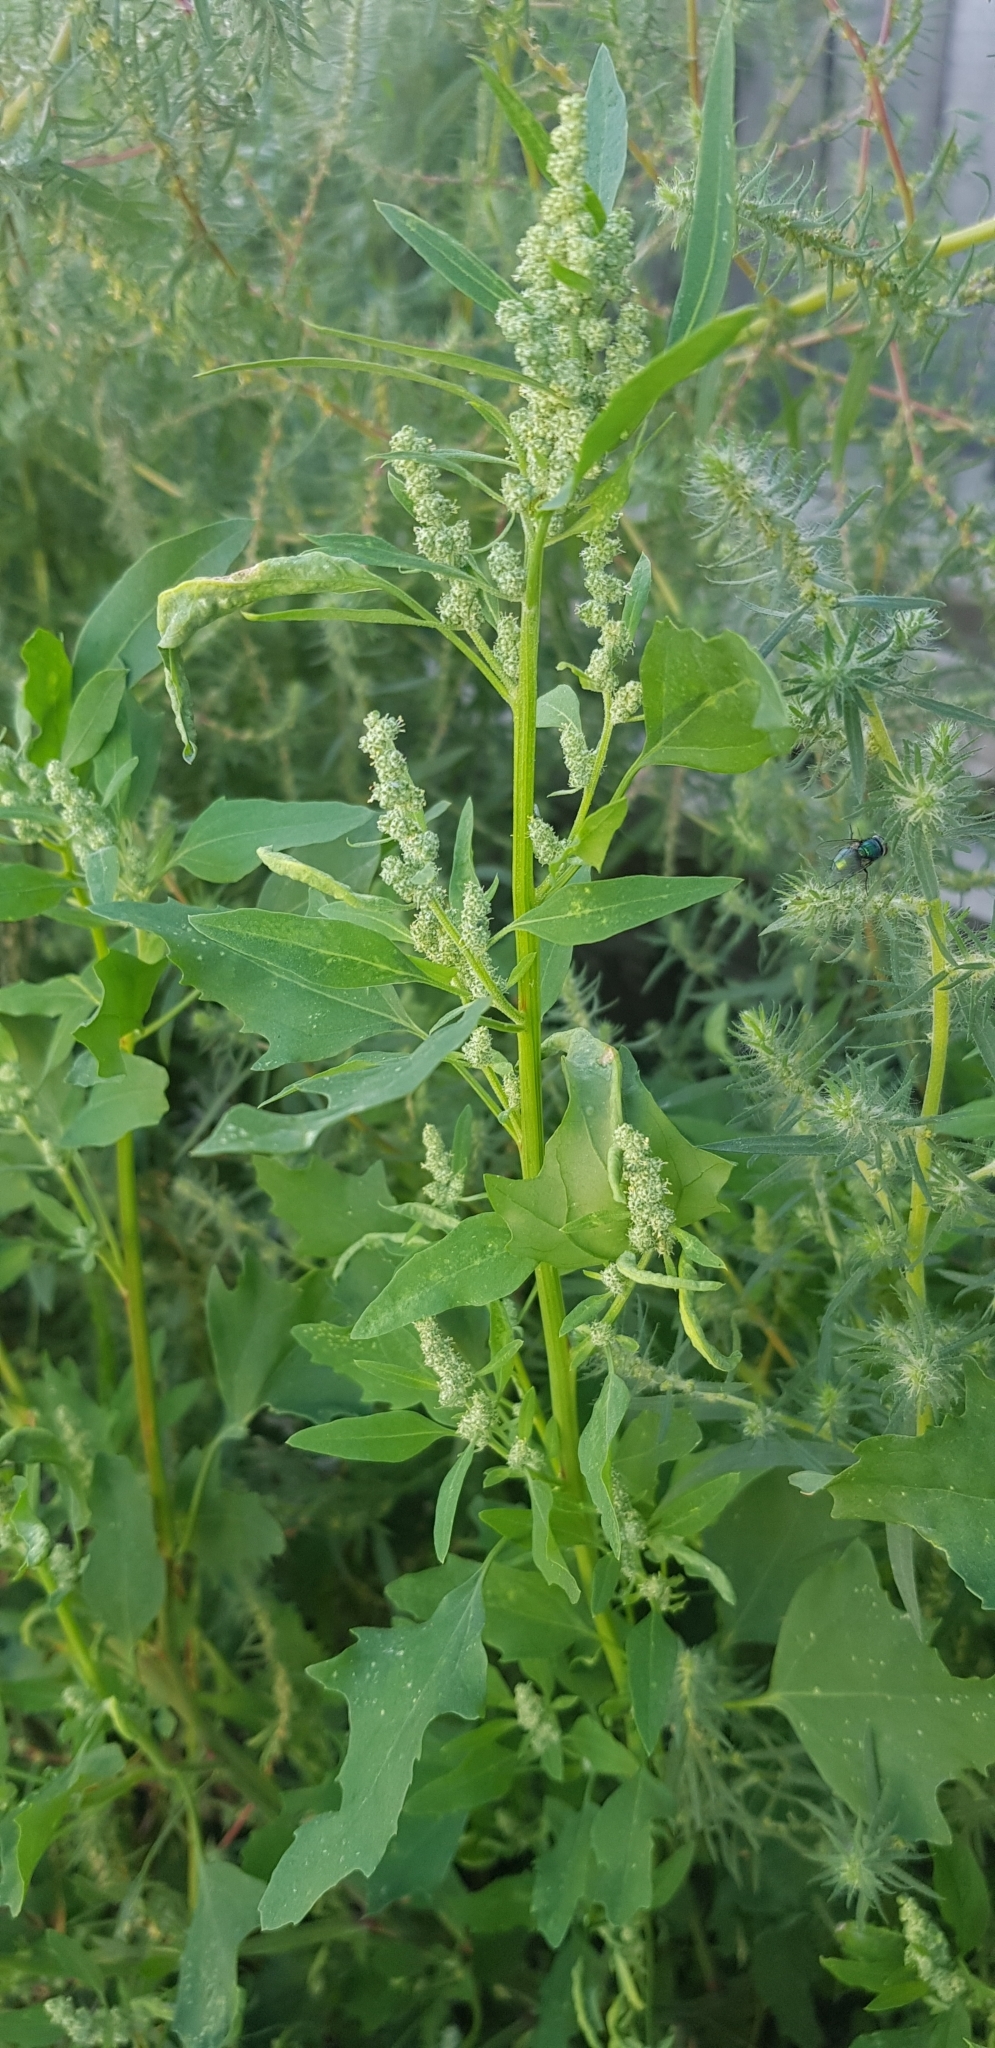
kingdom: Plantae
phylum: Tracheophyta
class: Magnoliopsida
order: Caryophyllales
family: Amaranthaceae
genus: Chenopodium
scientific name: Chenopodium album
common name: Fat-hen
